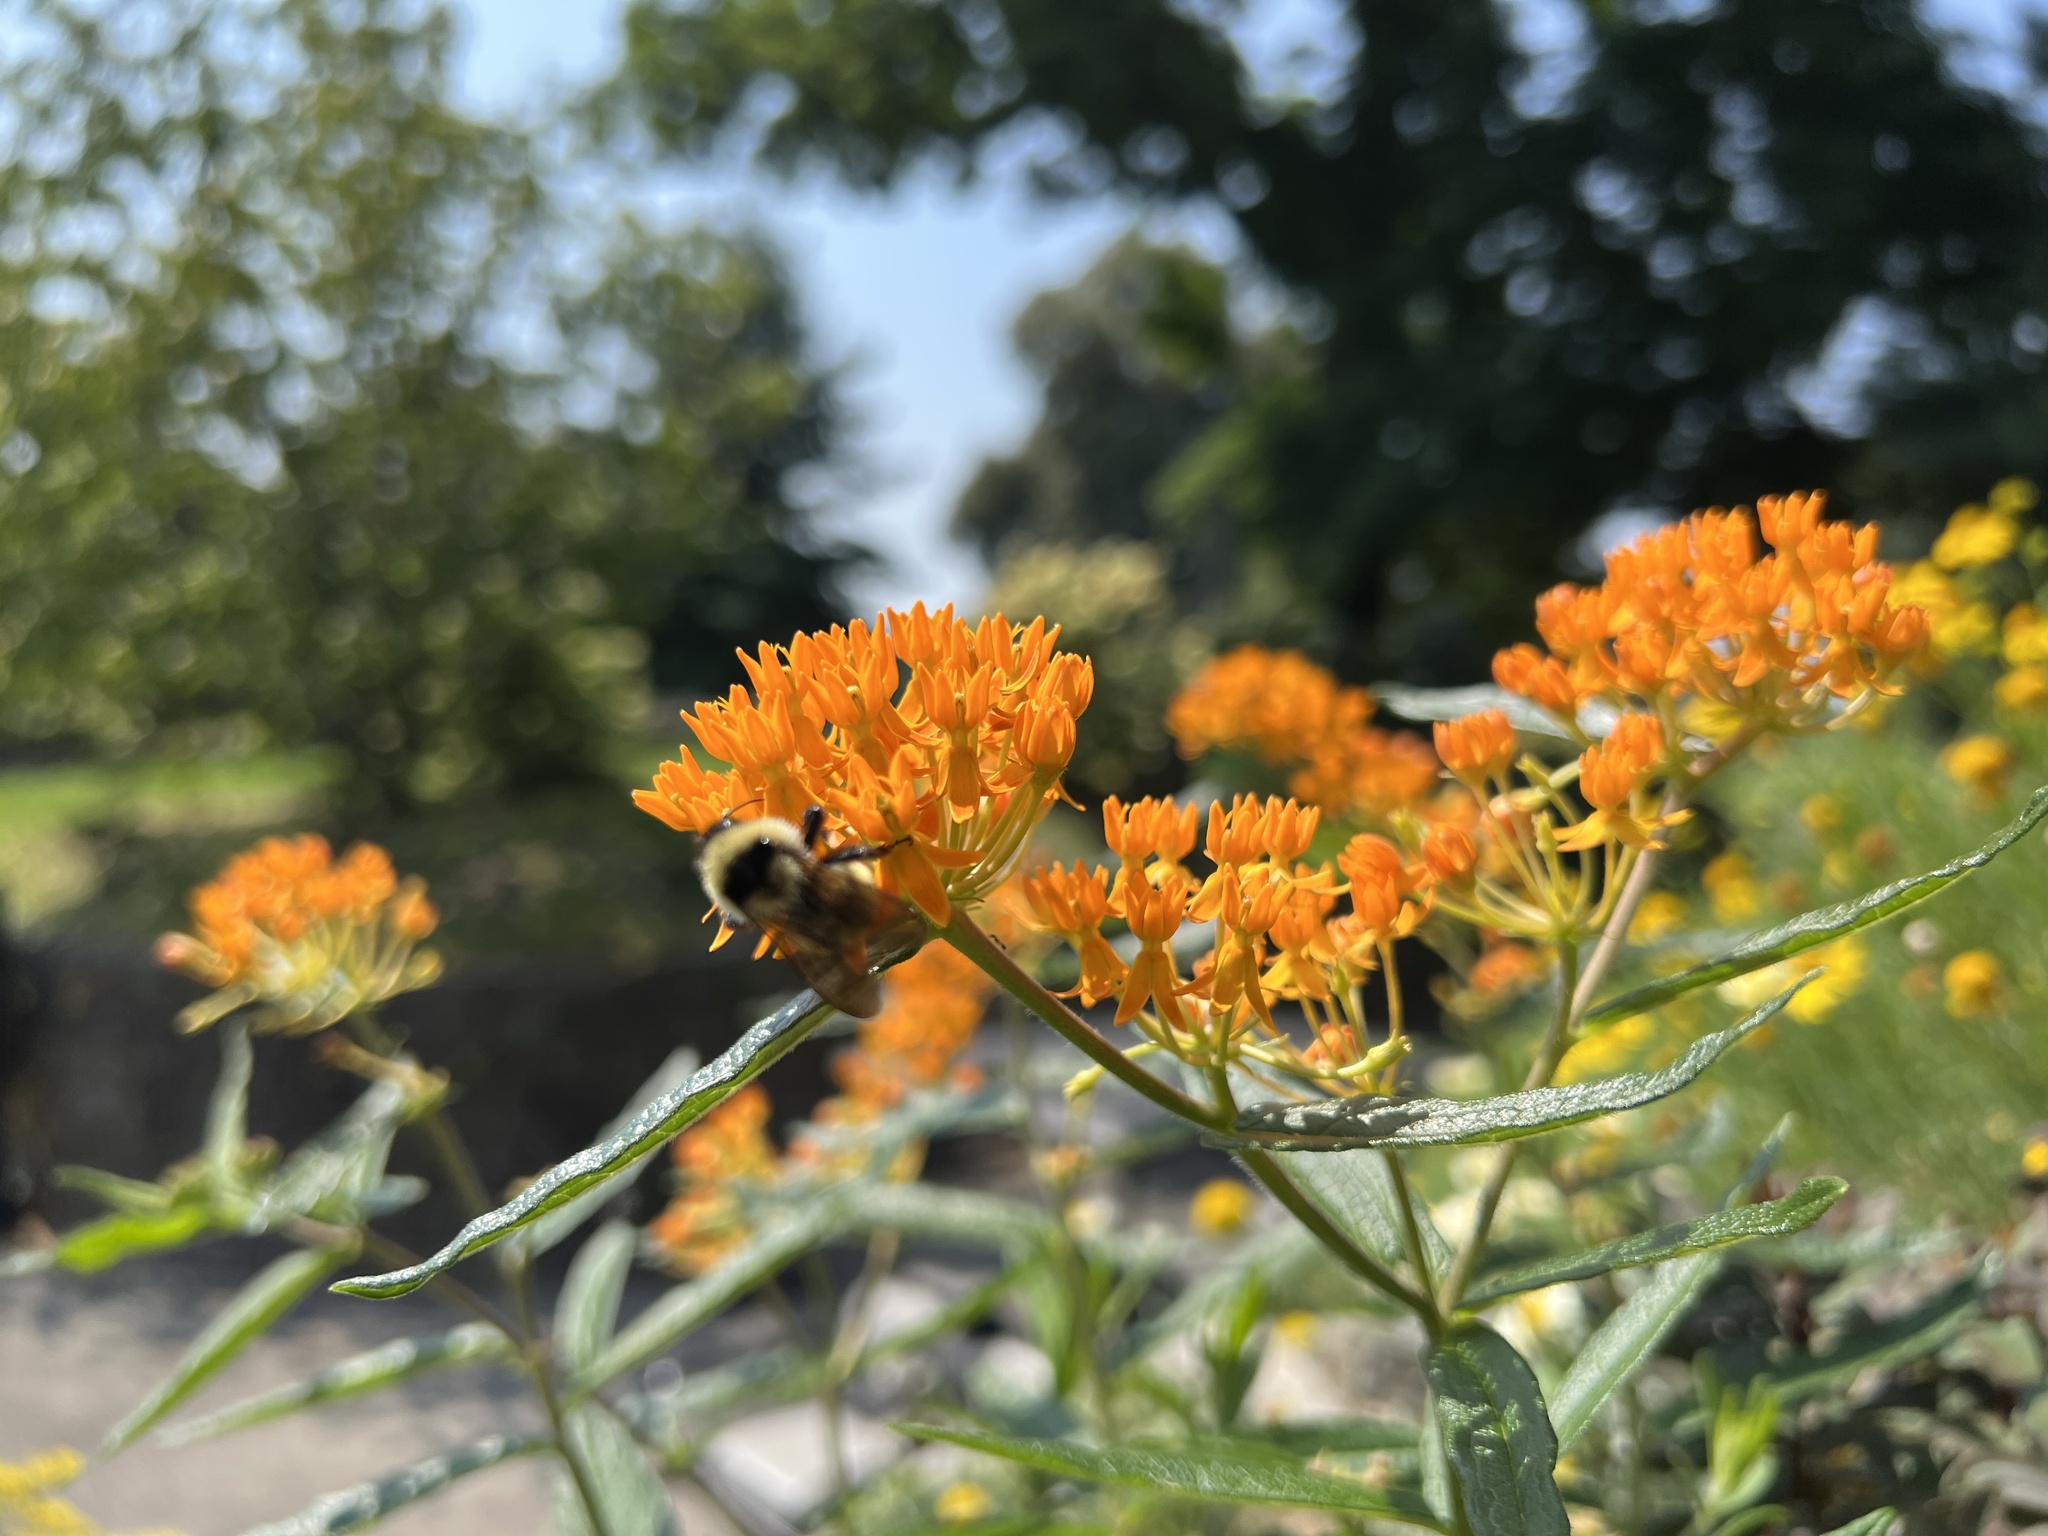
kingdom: Animalia
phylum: Arthropoda
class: Insecta
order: Hymenoptera
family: Apidae
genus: Bombus
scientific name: Bombus fervidus
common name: Yellow bumble bee
